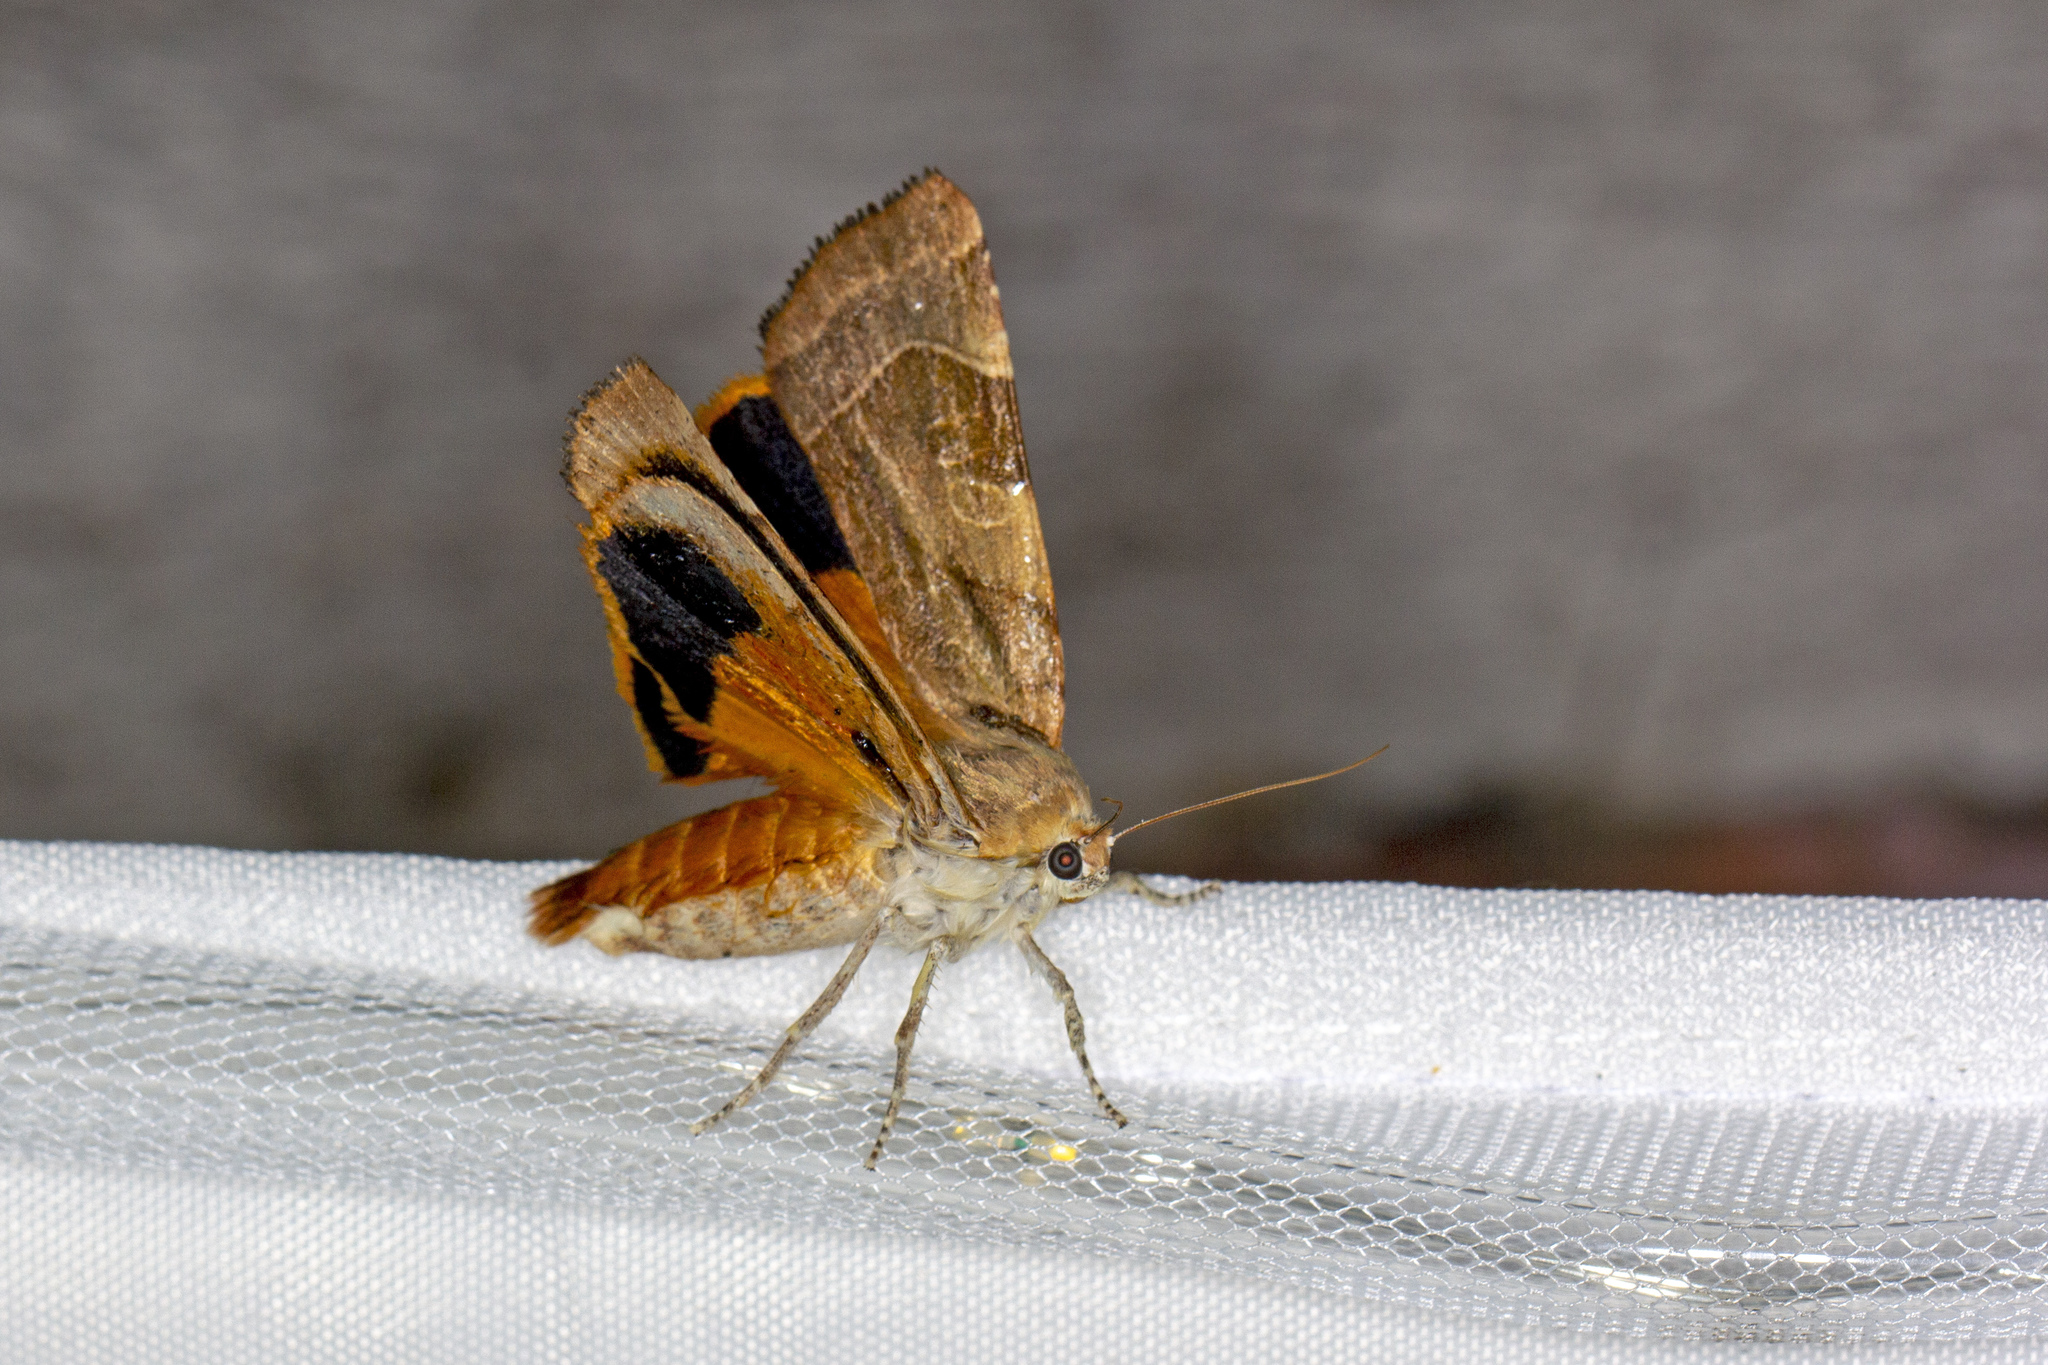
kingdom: Animalia
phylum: Arthropoda
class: Insecta
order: Lepidoptera
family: Noctuidae
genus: Noctua
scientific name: Noctua fimbriata
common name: Broad-bordered yellow underwing
